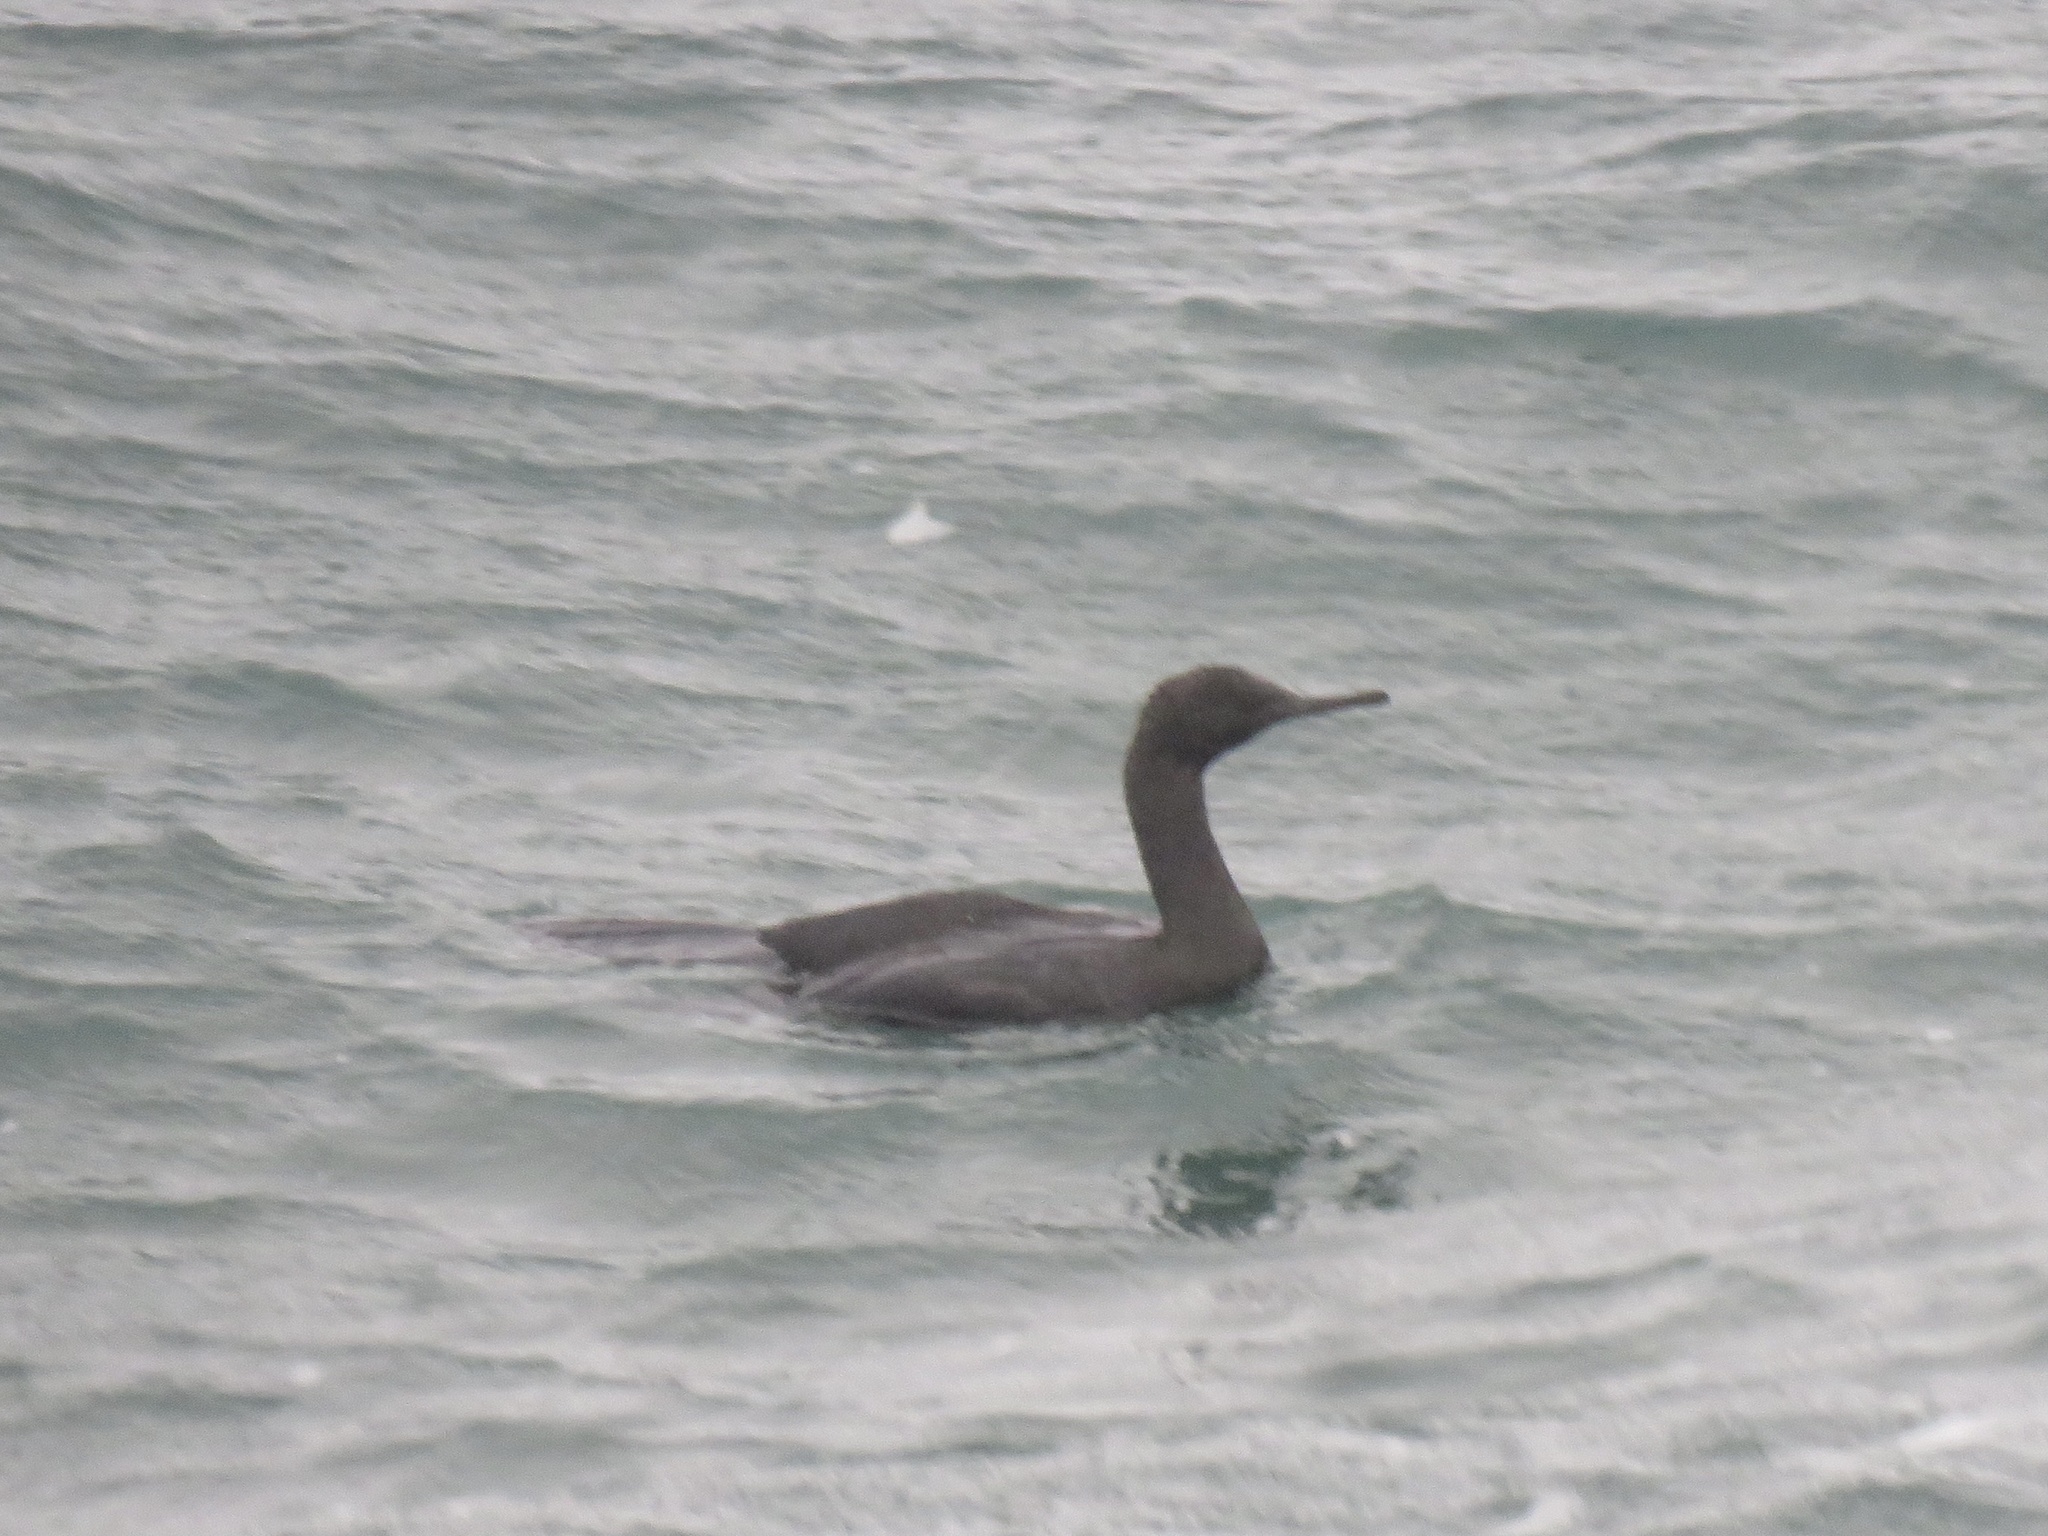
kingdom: Animalia
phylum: Chordata
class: Aves
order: Suliformes
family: Phalacrocoracidae
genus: Phalacrocorax
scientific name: Phalacrocorax pelagicus
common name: Pelagic cormorant
